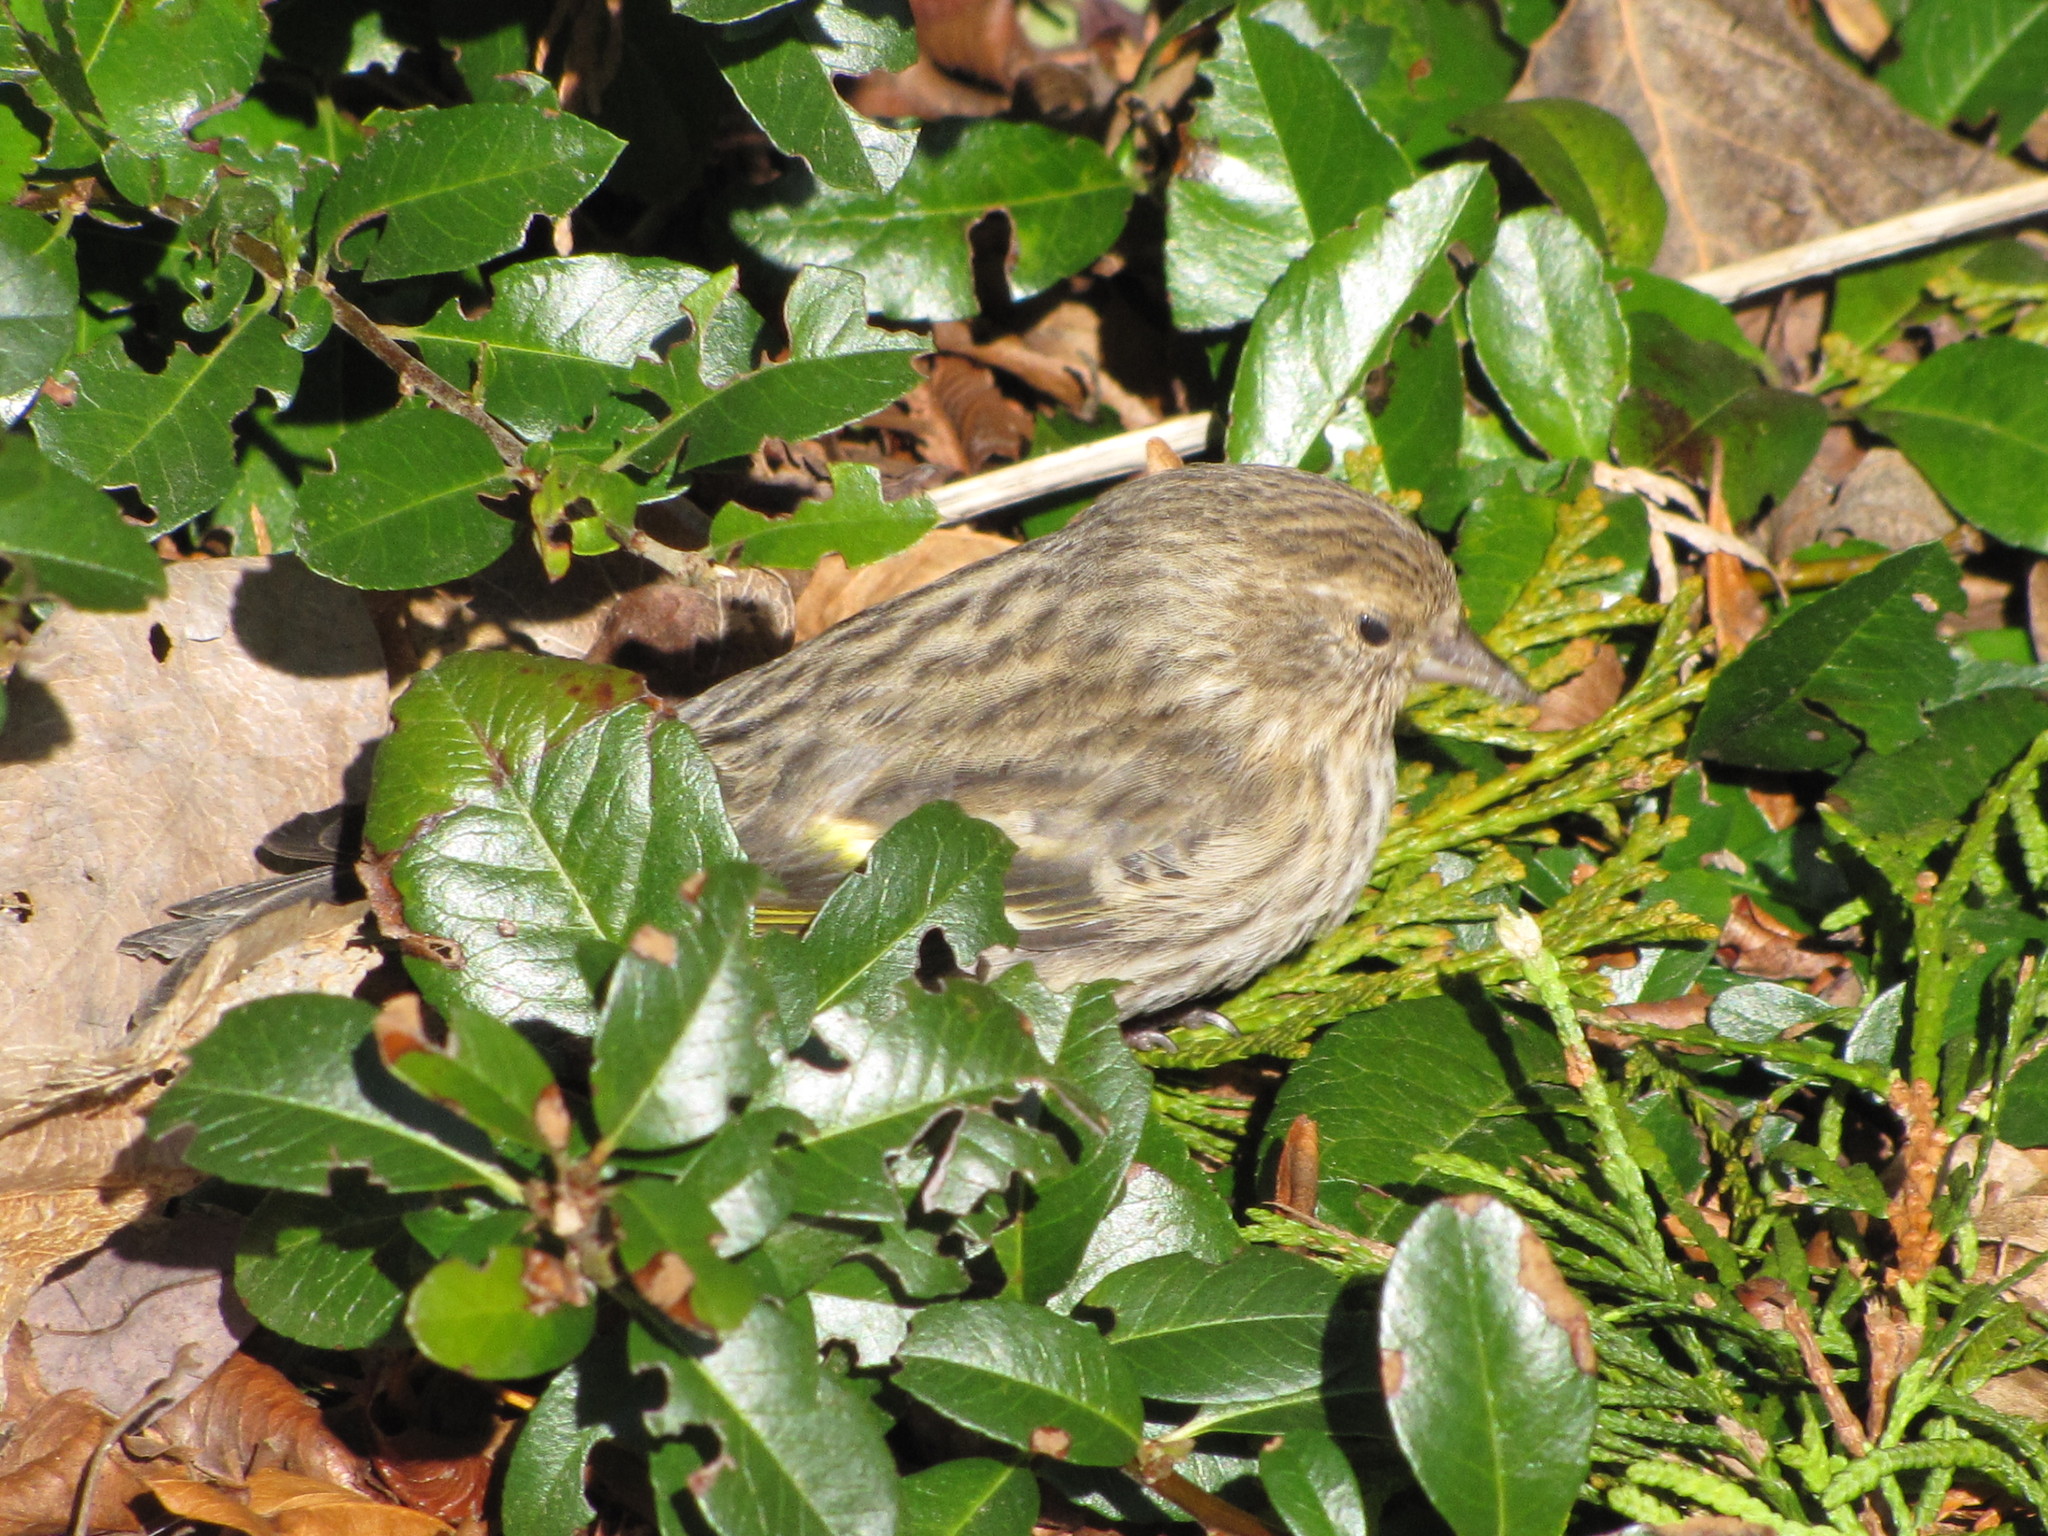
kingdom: Animalia
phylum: Chordata
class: Aves
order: Passeriformes
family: Fringillidae
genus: Spinus
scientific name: Spinus pinus
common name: Pine siskin
